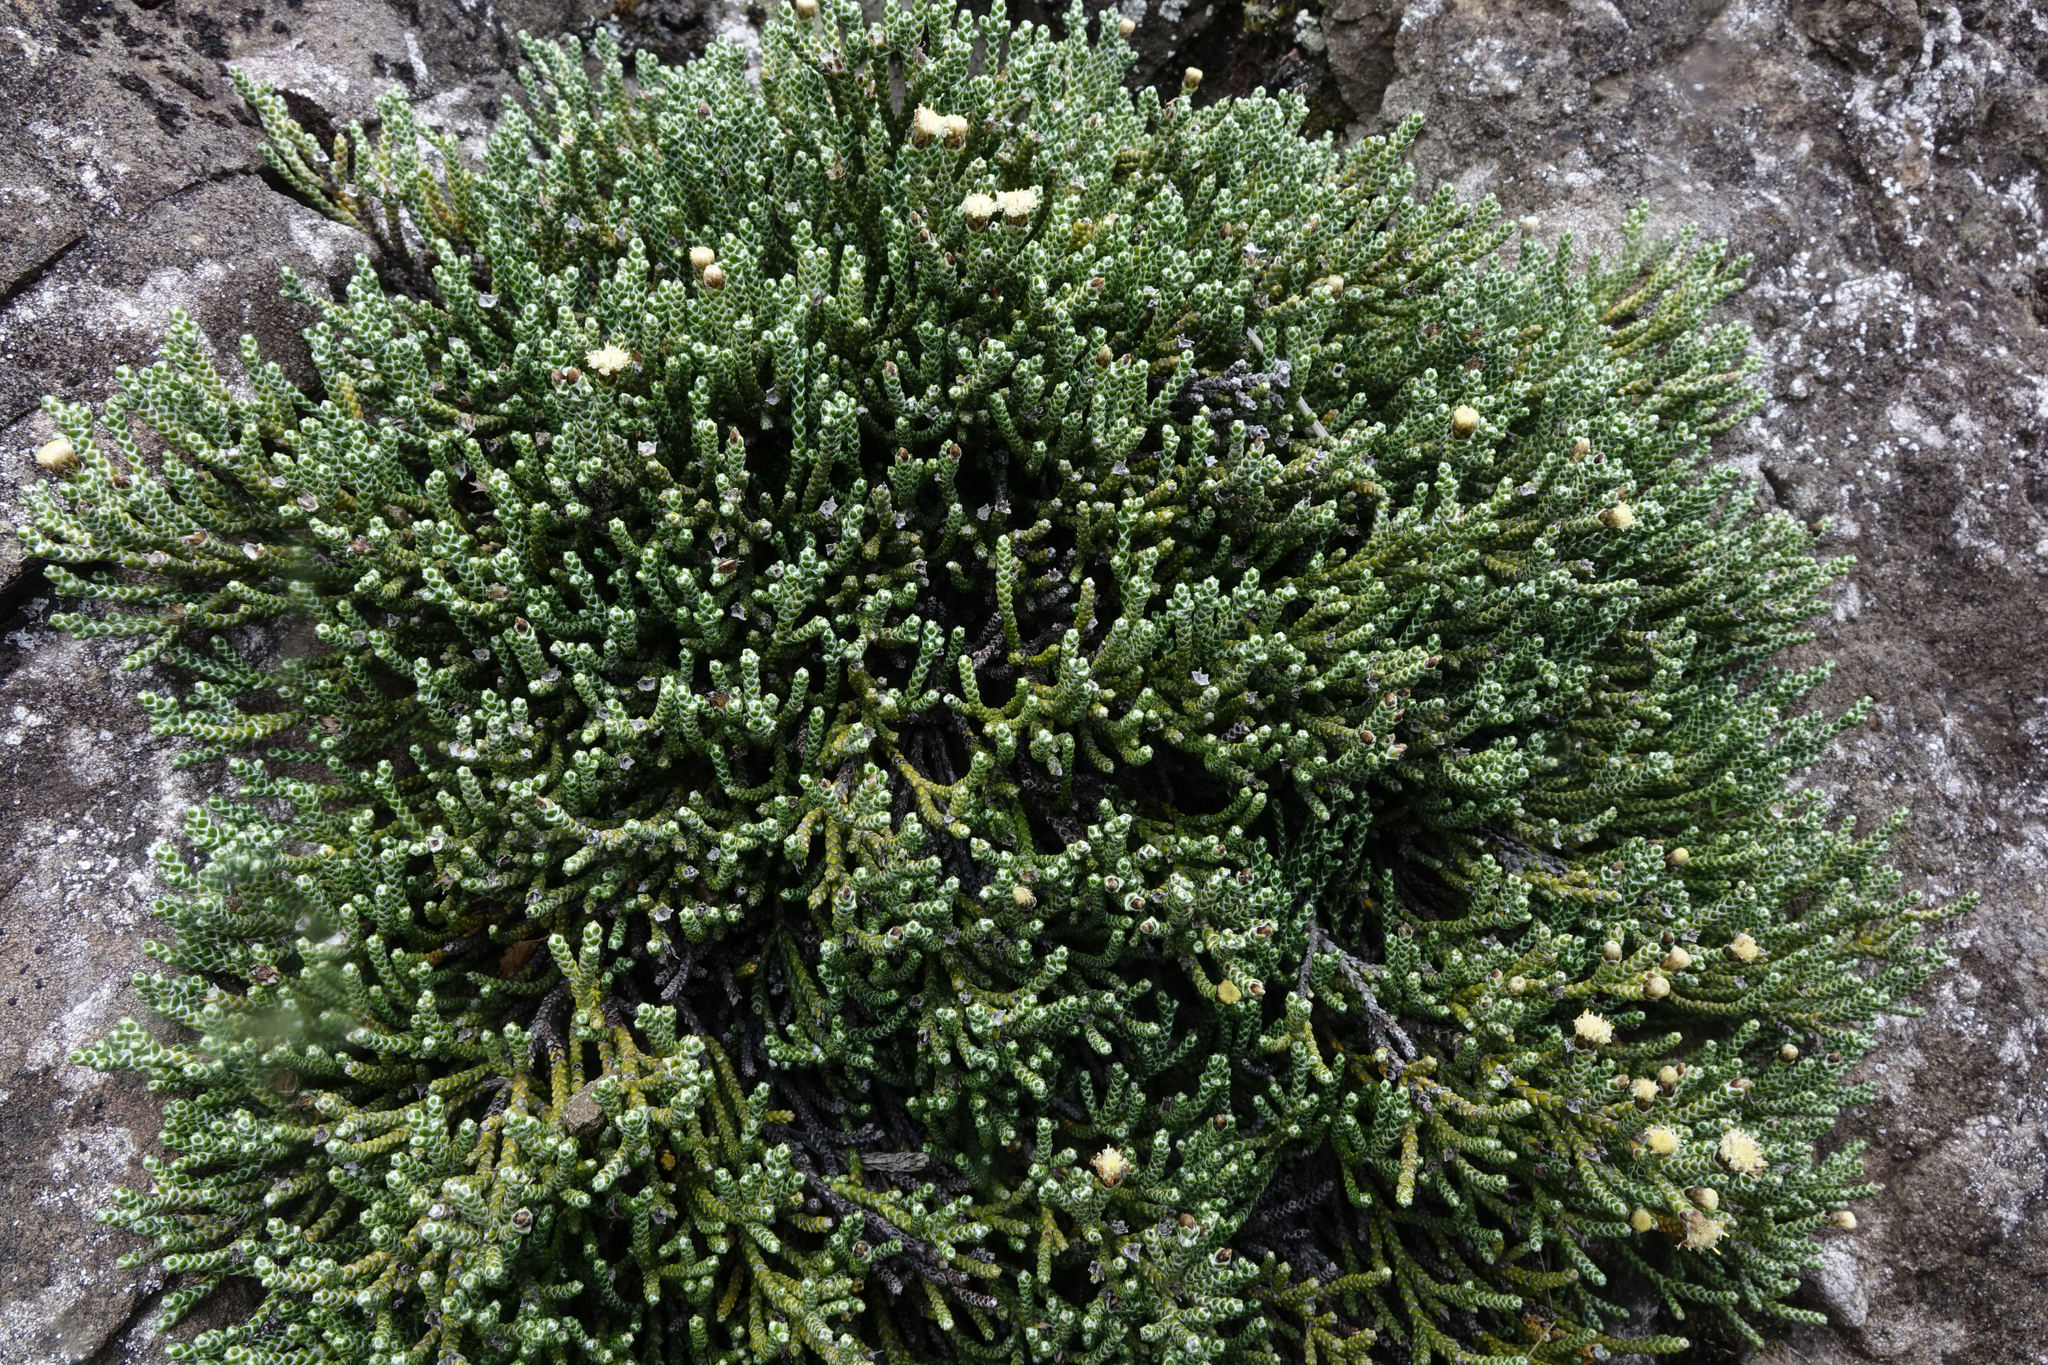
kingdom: Plantae
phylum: Tracheophyta
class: Magnoliopsida
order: Asterales
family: Asteraceae
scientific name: Asteraceae
